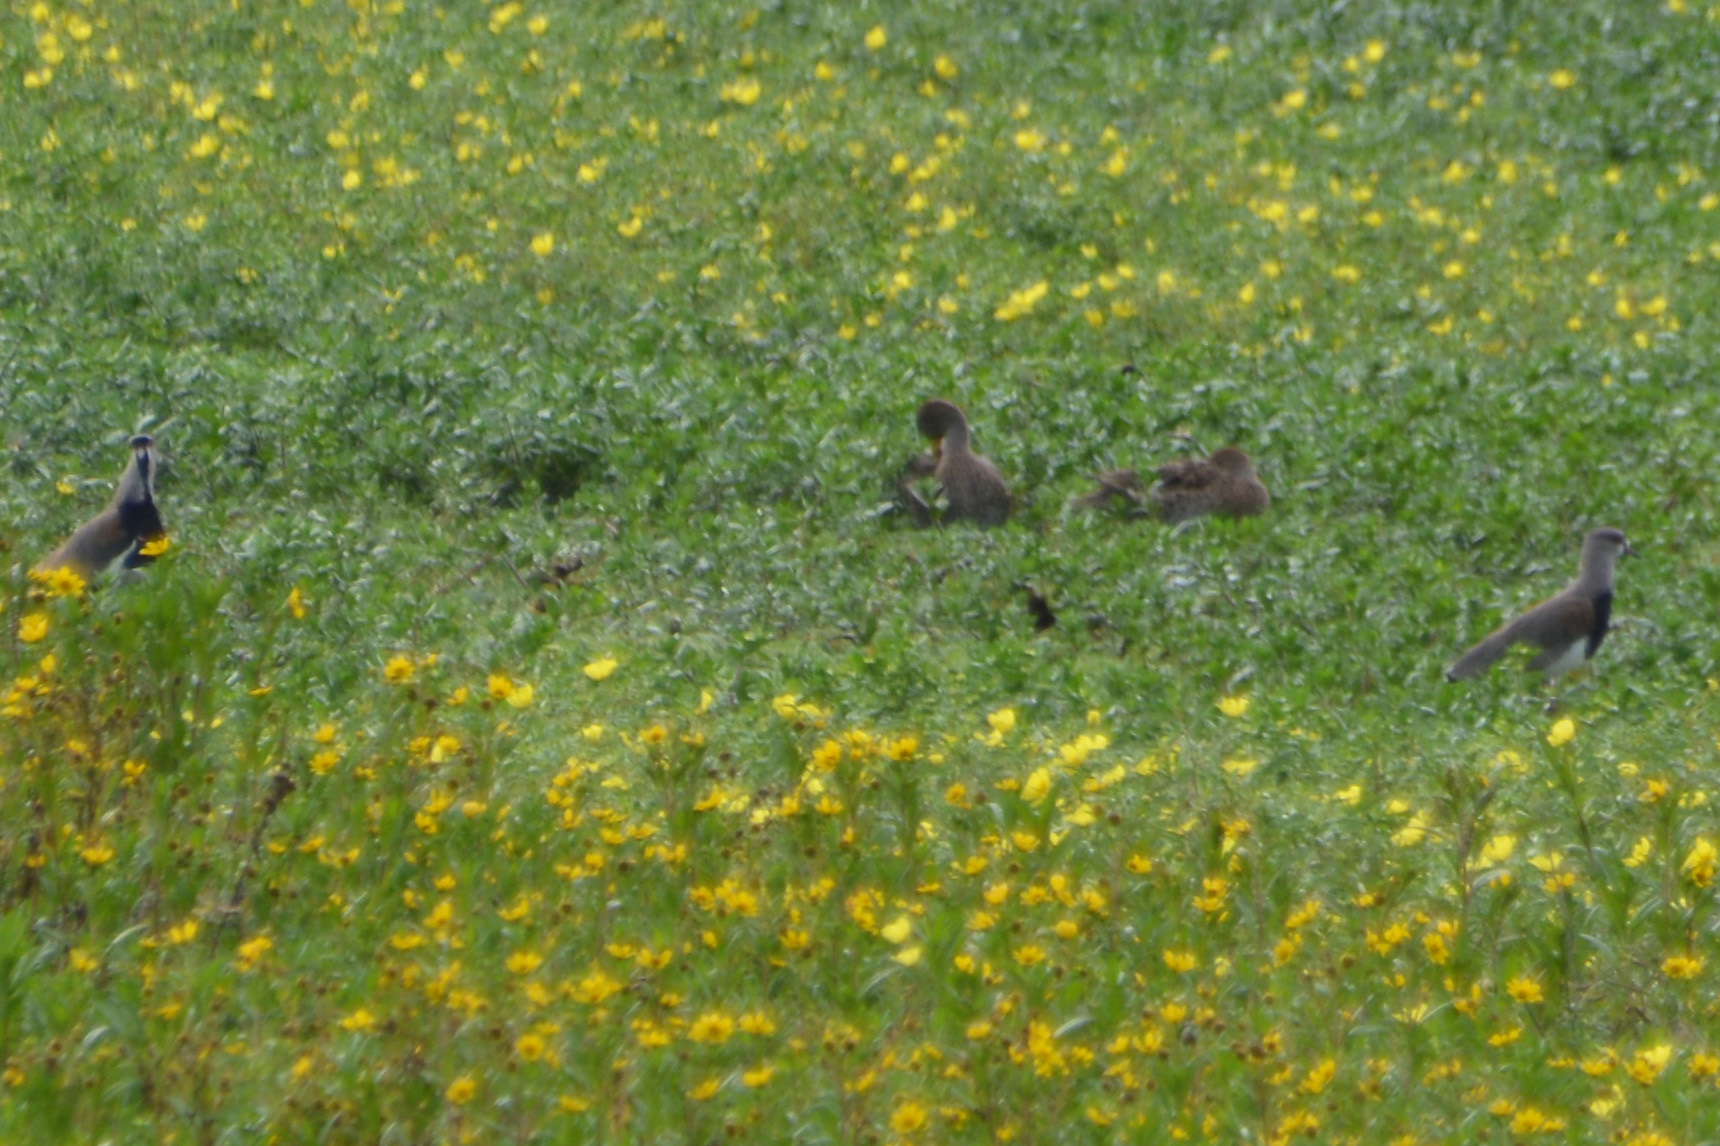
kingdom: Animalia
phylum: Chordata
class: Aves
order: Charadriiformes
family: Charadriidae
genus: Vanellus
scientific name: Vanellus chilensis
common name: Southern lapwing
